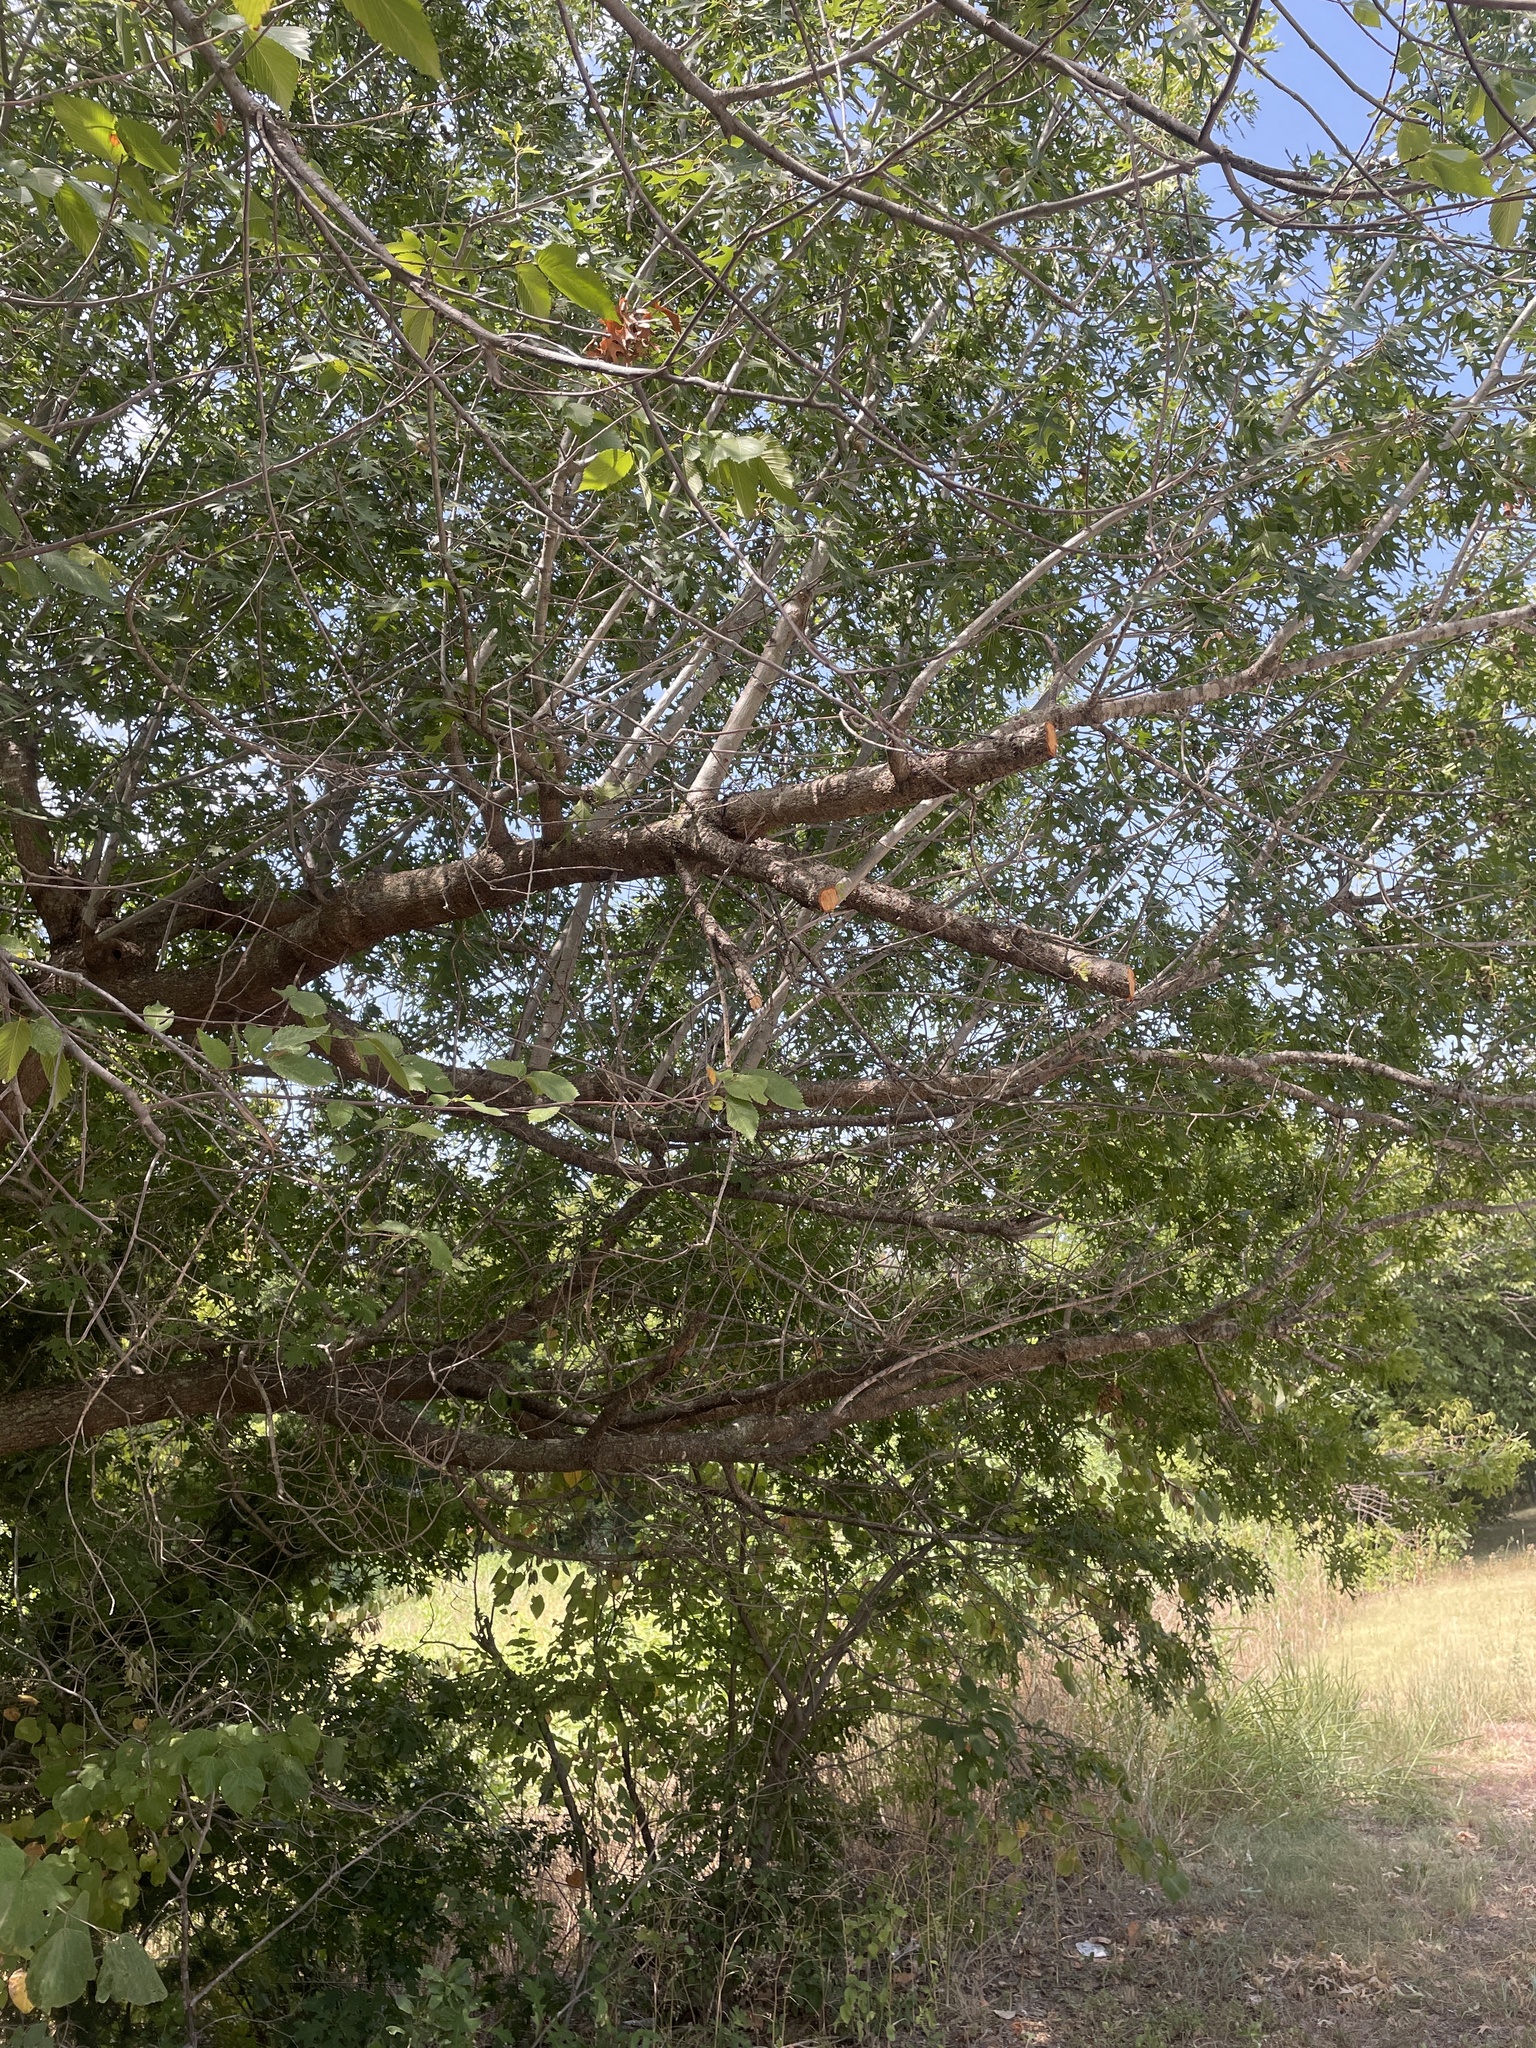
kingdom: Plantae
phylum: Tracheophyta
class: Magnoliopsida
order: Fagales
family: Fagaceae
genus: Quercus
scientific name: Quercus buckleyi
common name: Buckley oak
